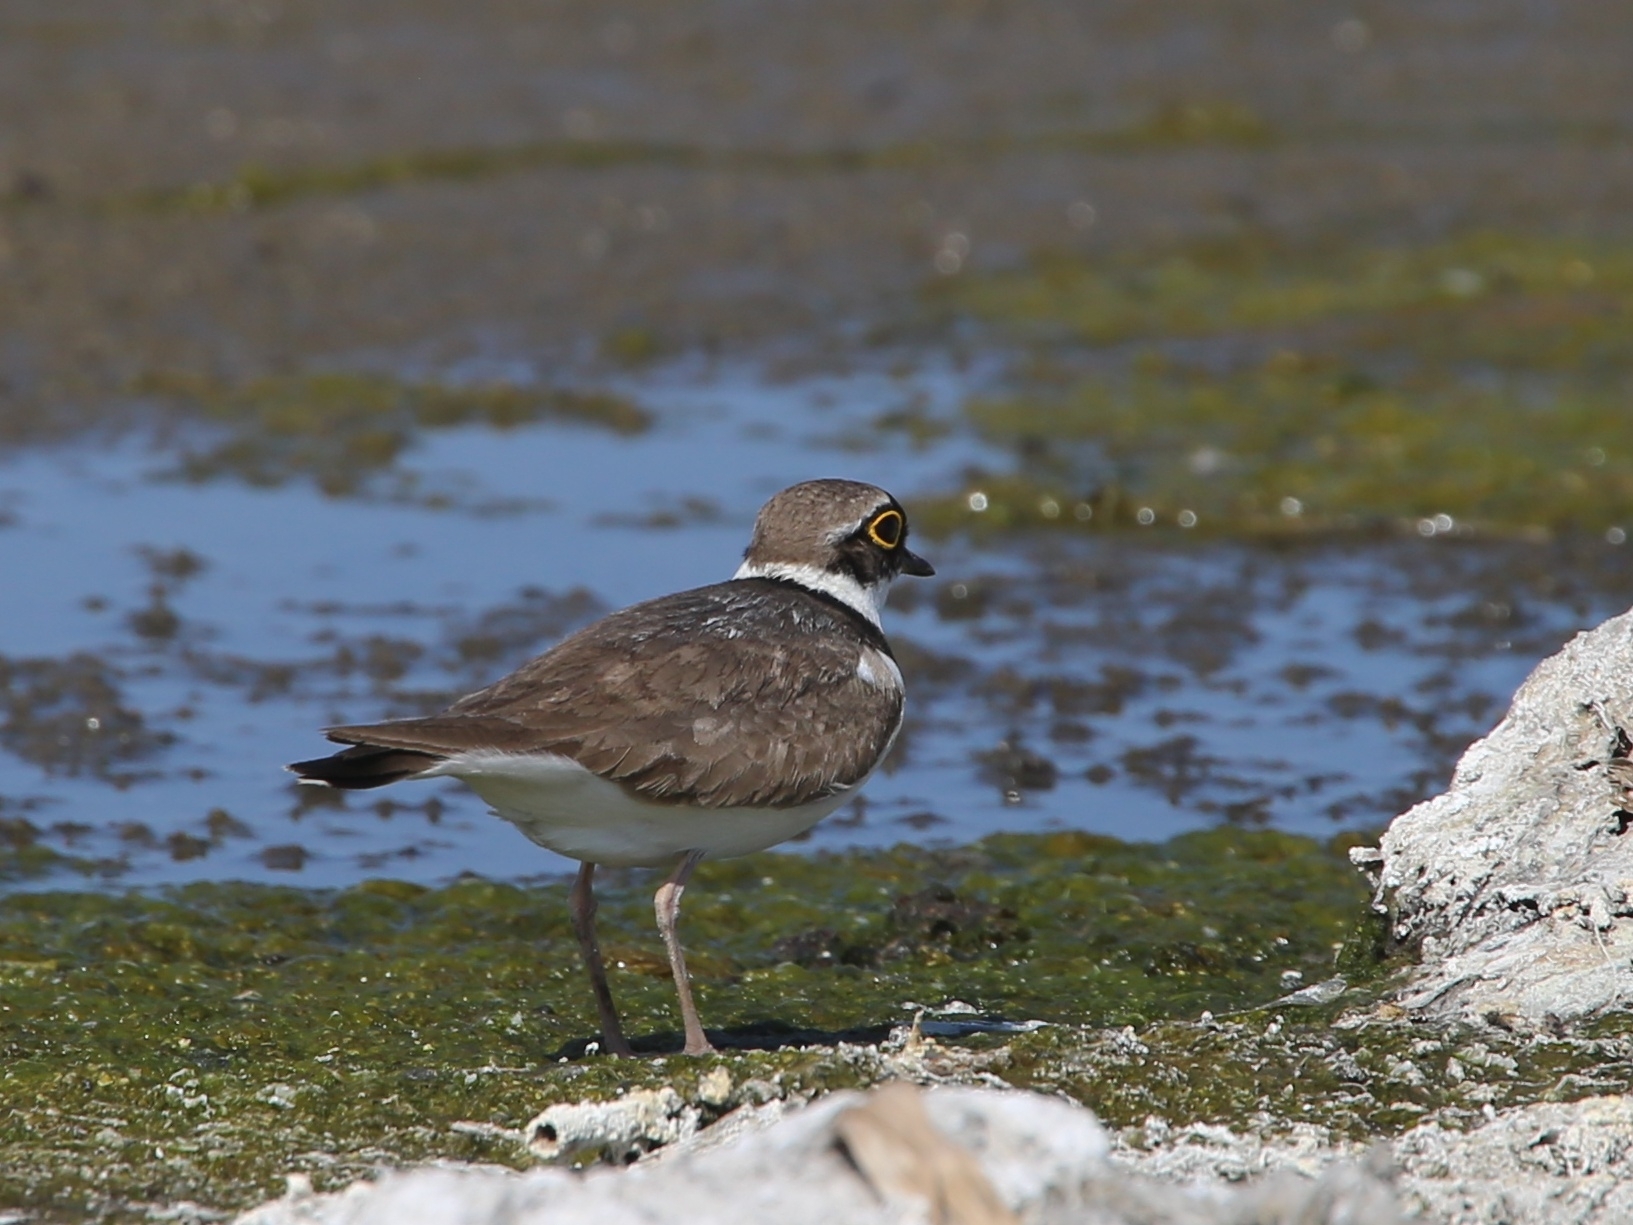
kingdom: Animalia
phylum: Chordata
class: Aves
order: Charadriiformes
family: Charadriidae
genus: Charadrius
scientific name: Charadrius dubius
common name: Little ringed plover
